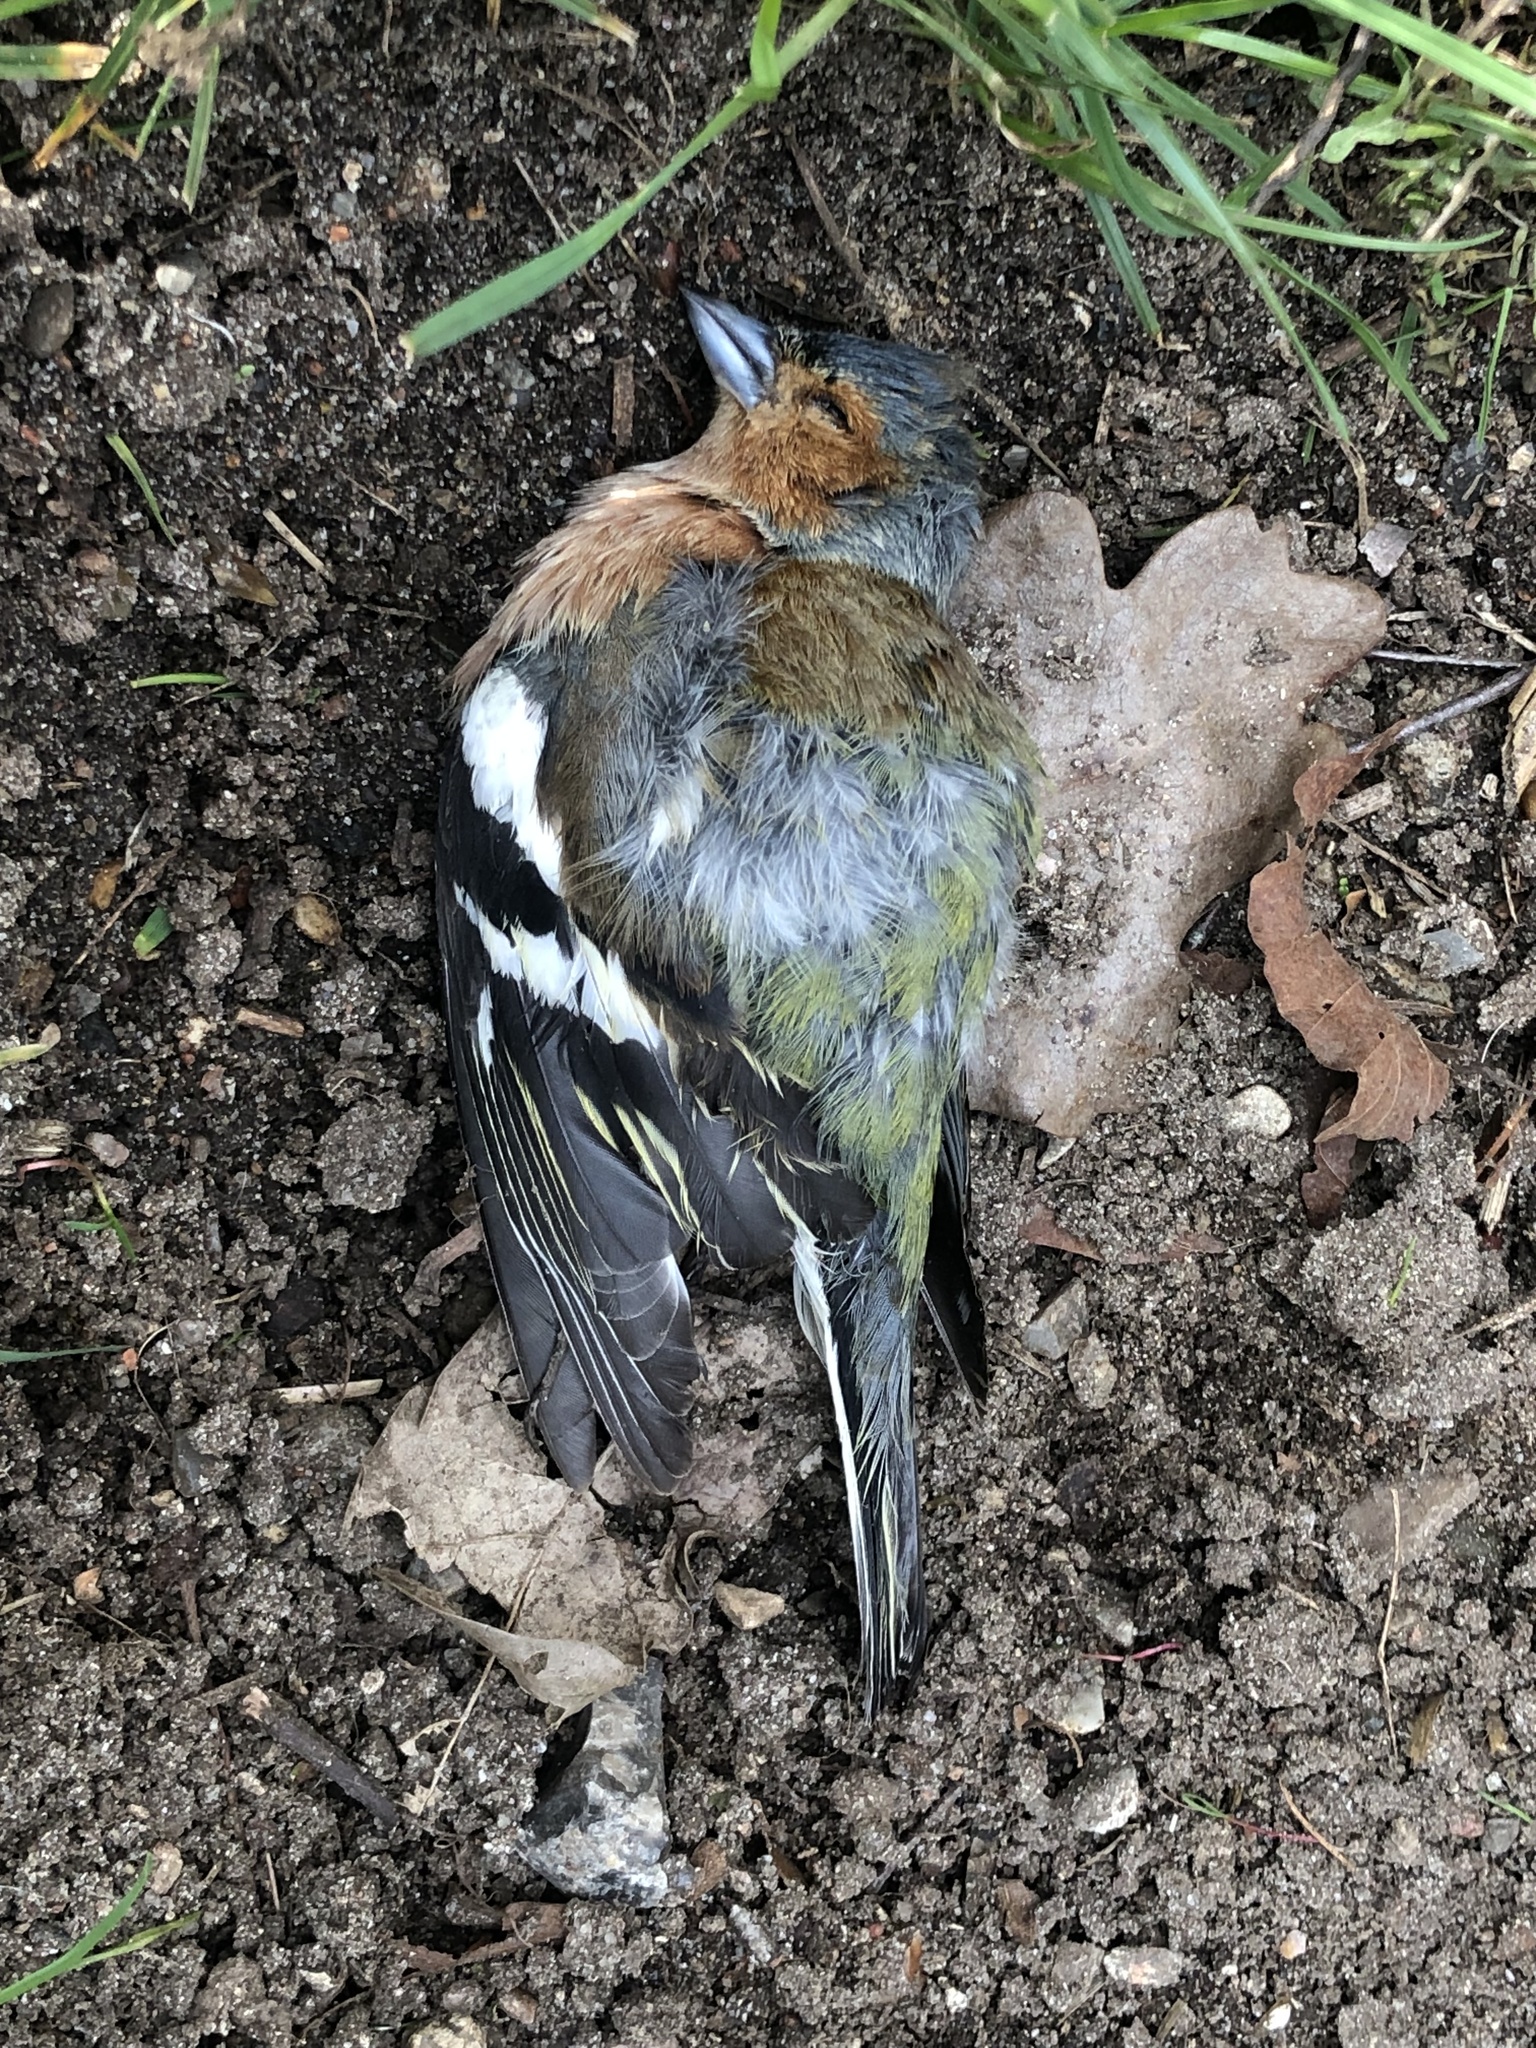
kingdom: Animalia
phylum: Chordata
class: Aves
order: Passeriformes
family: Fringillidae
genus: Fringilla
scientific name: Fringilla coelebs
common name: Common chaffinch
